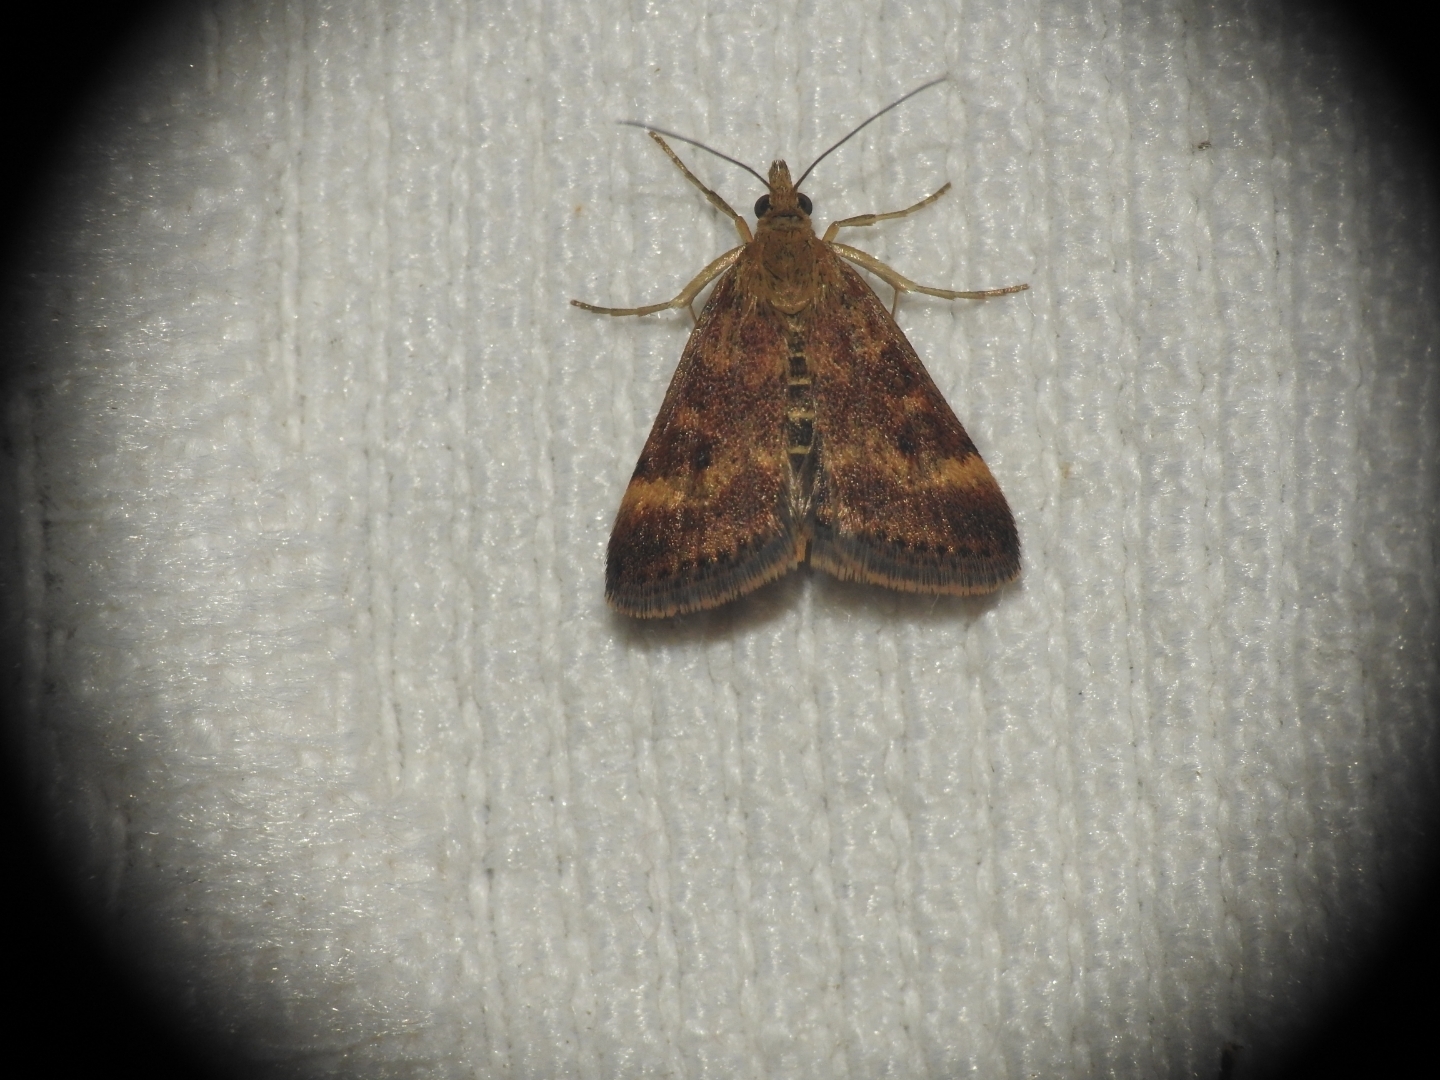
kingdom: Animalia
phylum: Arthropoda
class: Insecta
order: Lepidoptera
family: Crambidae
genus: Pyrausta
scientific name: Pyrausta despicata
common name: Straw-barred pearl
